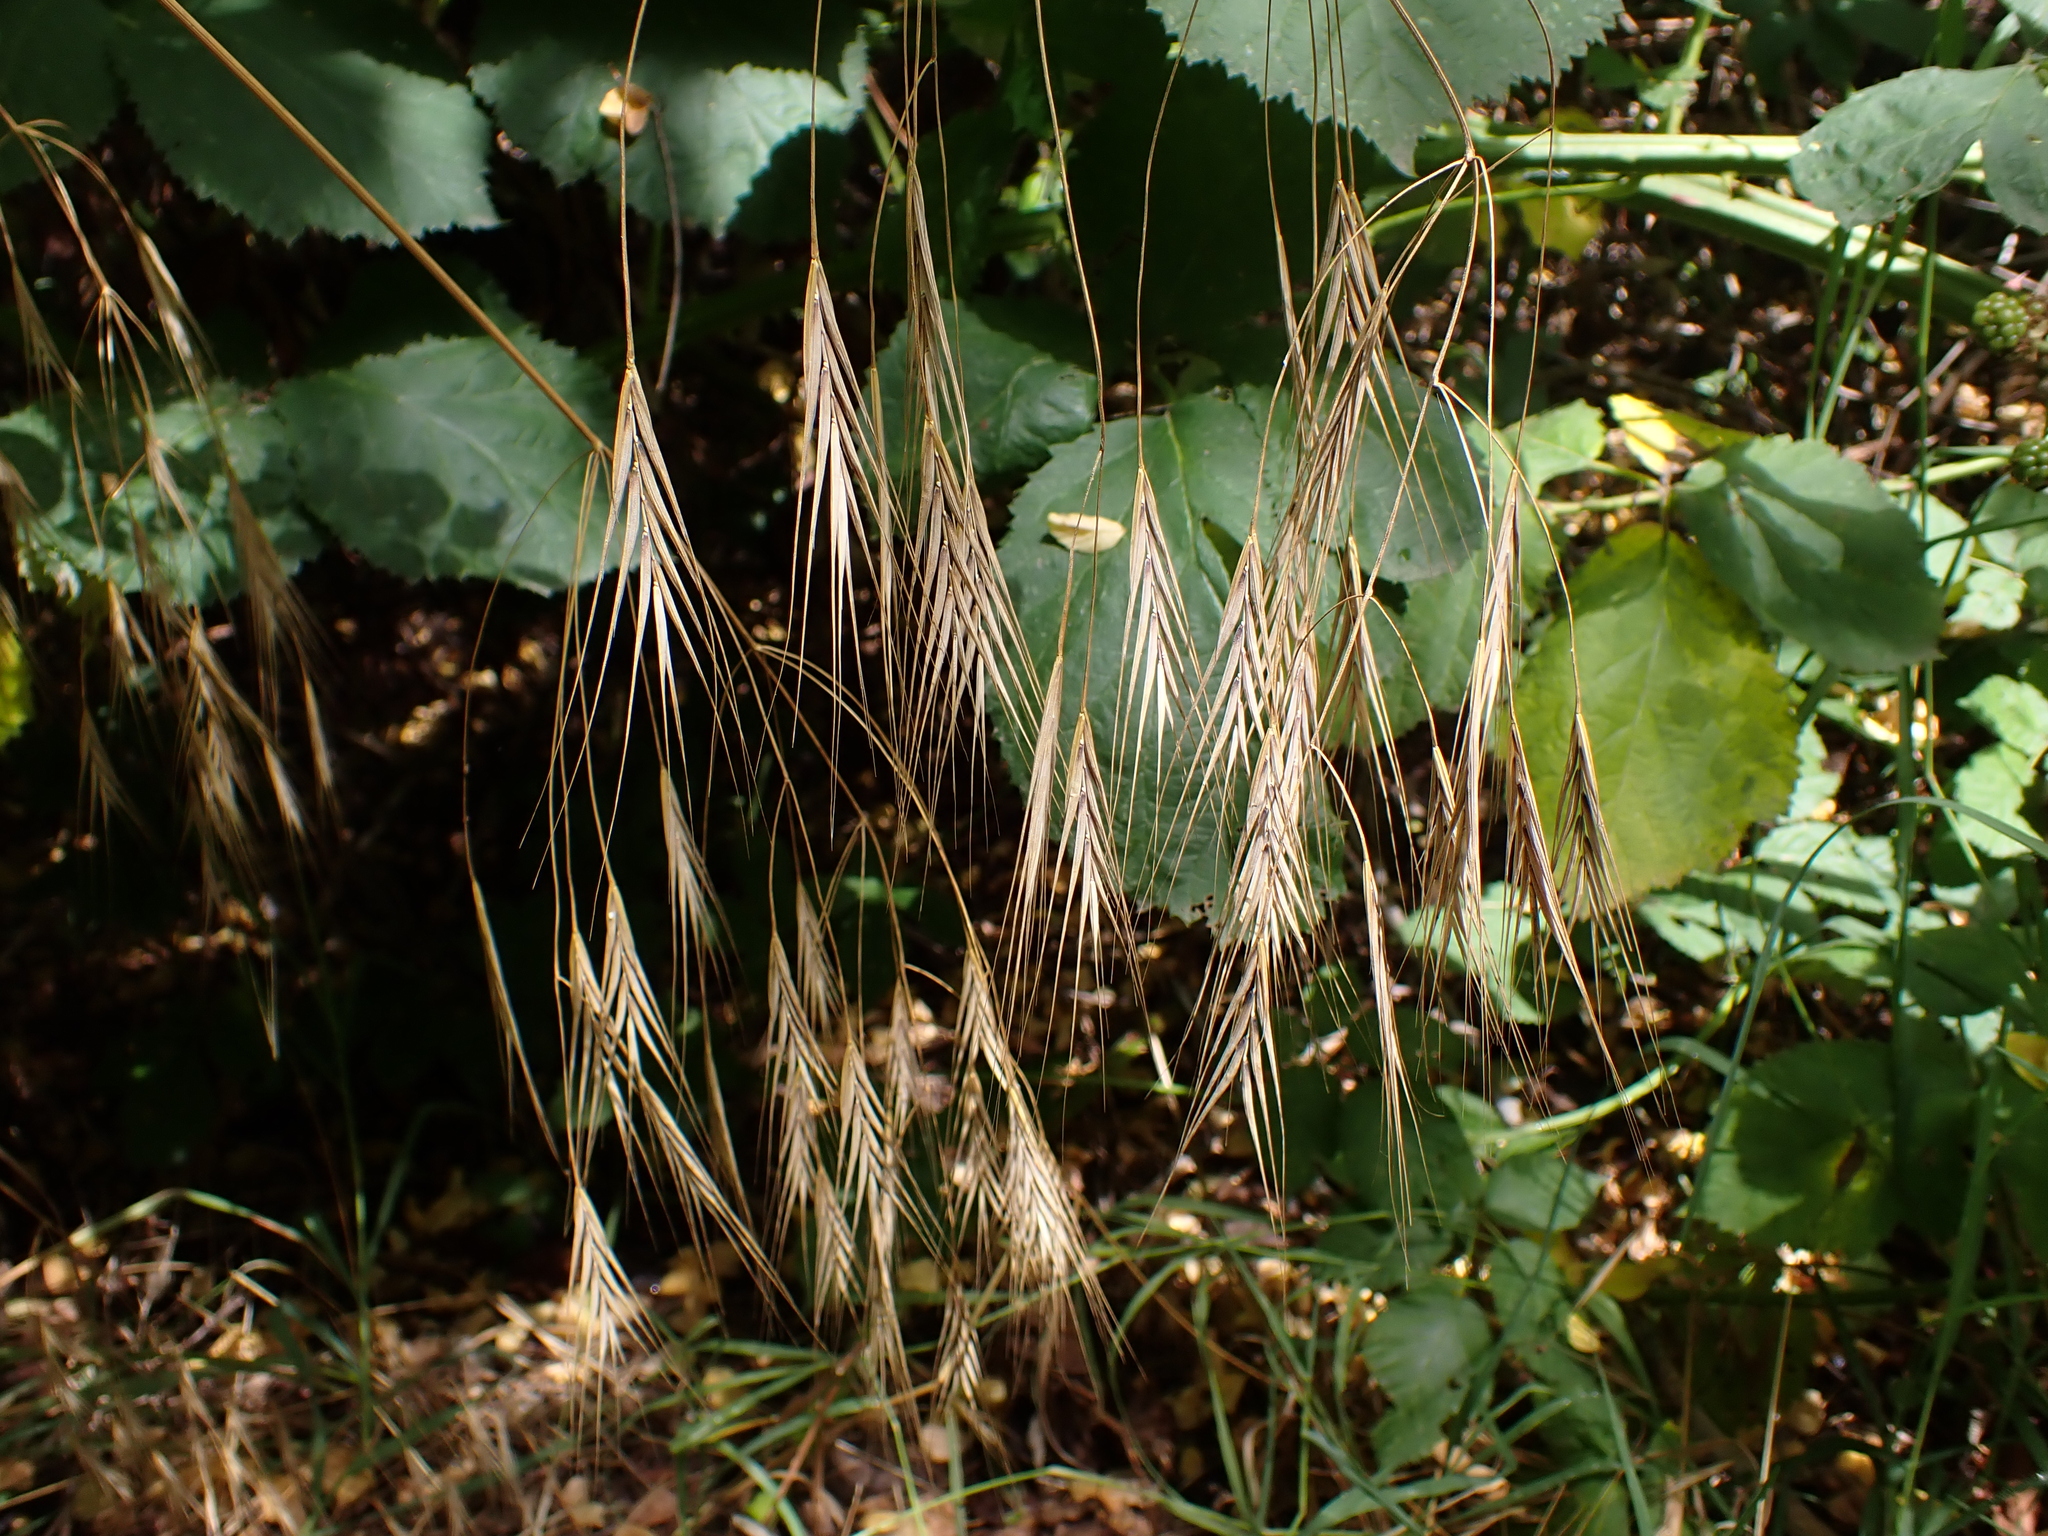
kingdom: Plantae
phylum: Tracheophyta
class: Liliopsida
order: Poales
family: Poaceae
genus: Bromus
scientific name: Bromus sterilis
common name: Poverty brome
